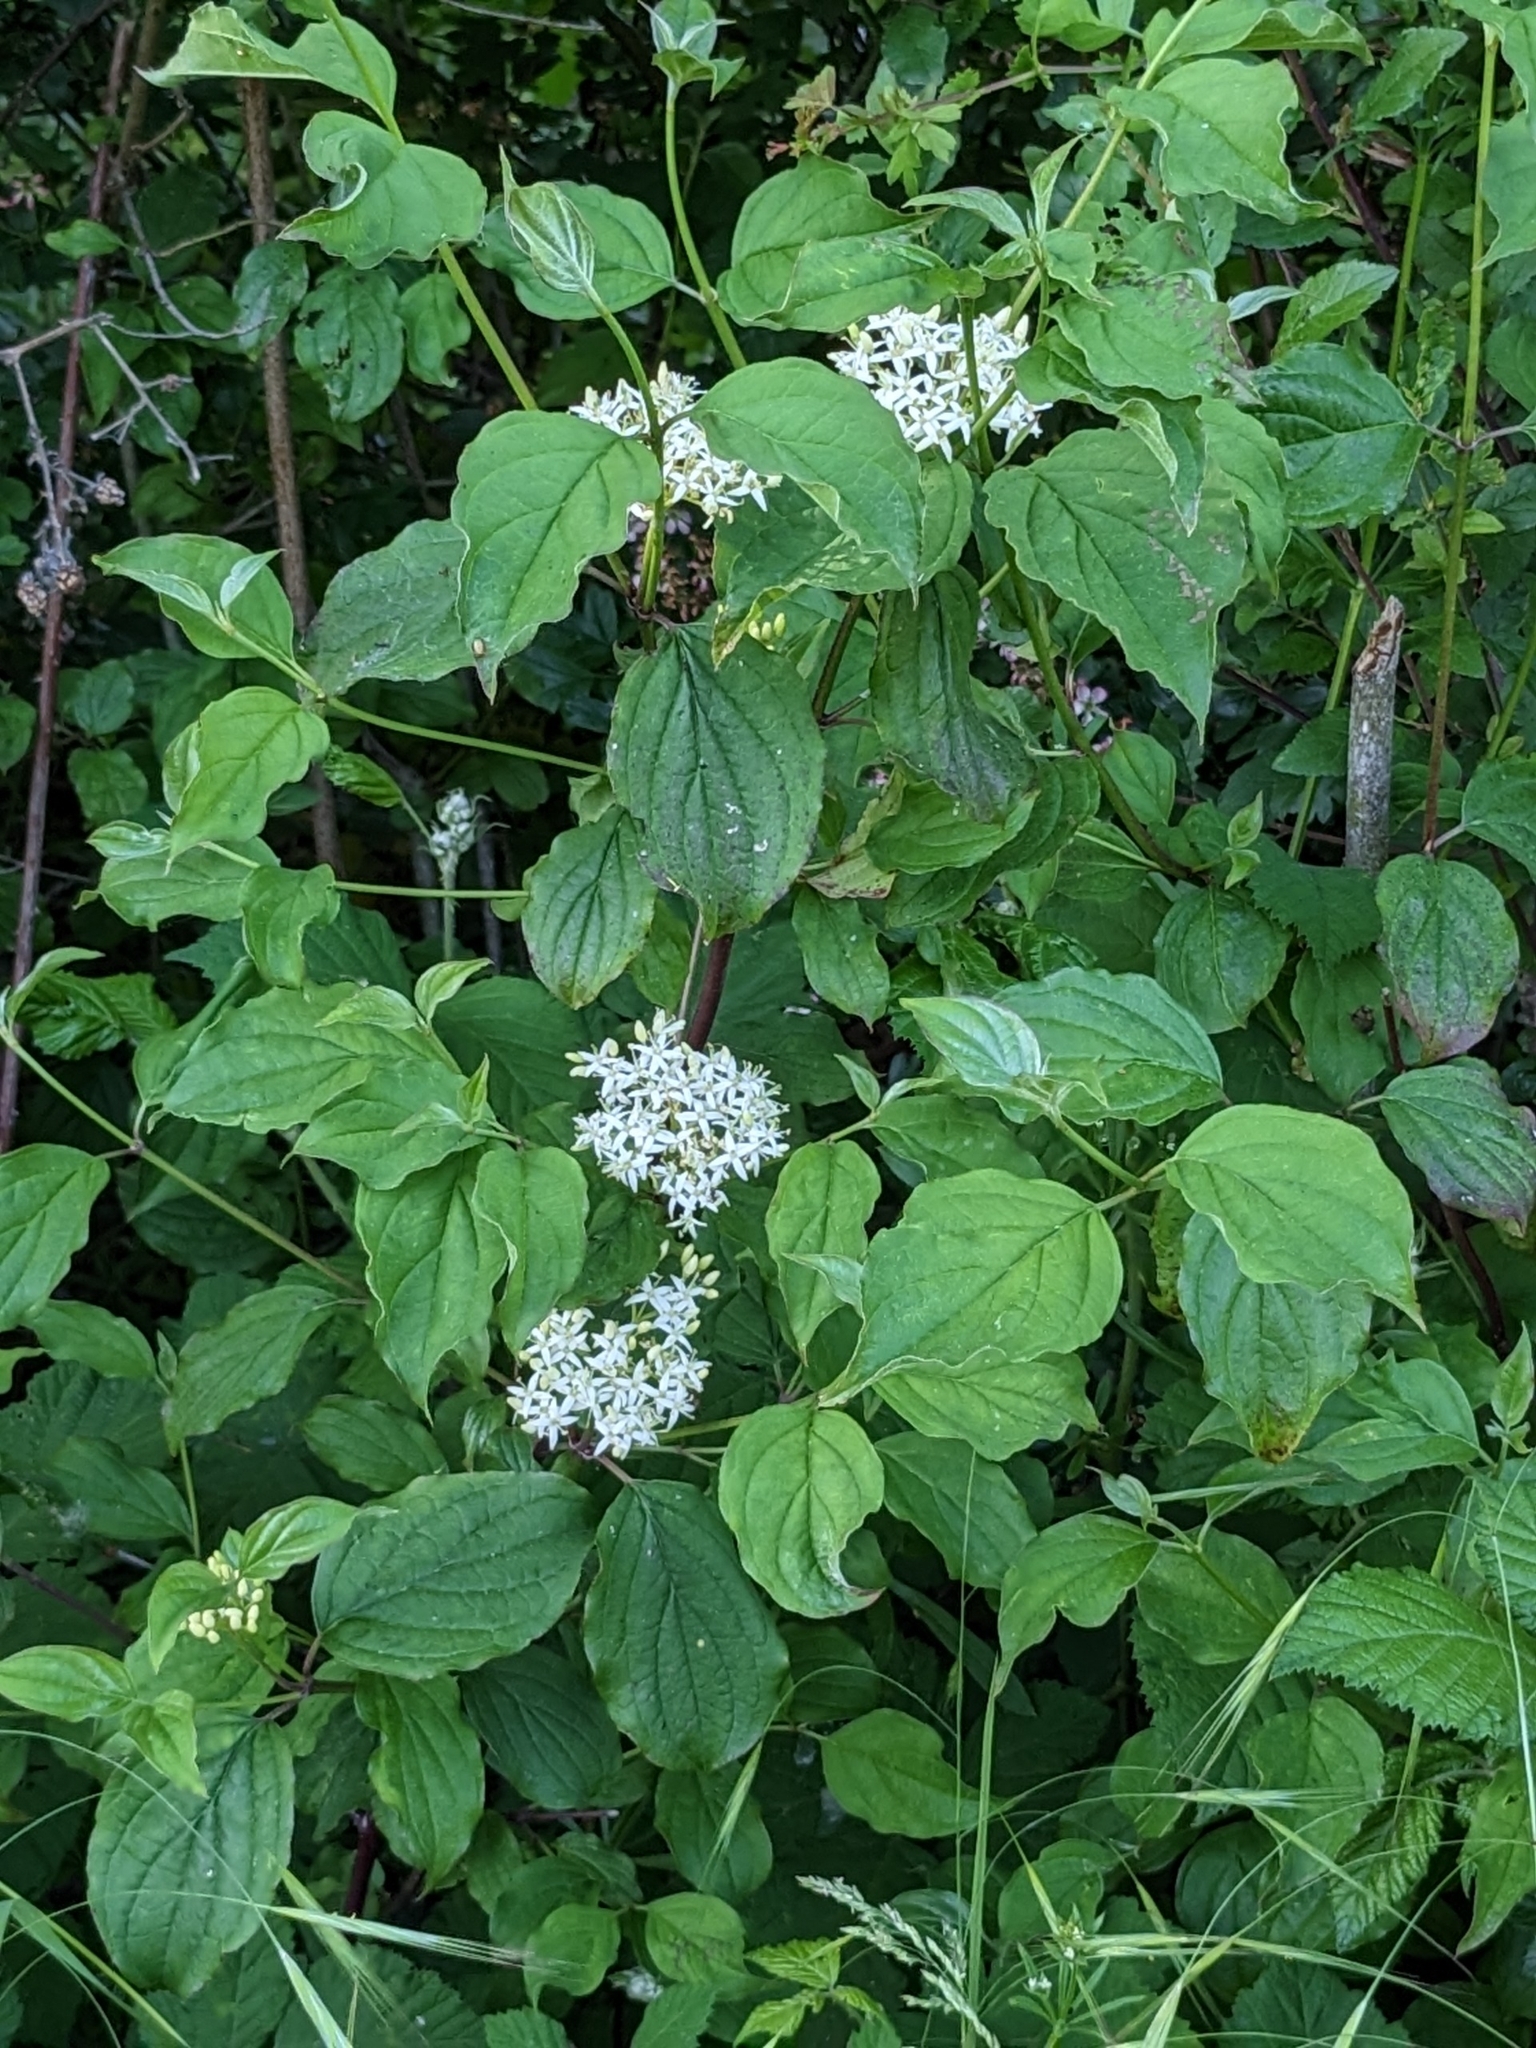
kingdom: Plantae
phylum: Tracheophyta
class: Magnoliopsida
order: Cornales
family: Cornaceae
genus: Cornus
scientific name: Cornus sanguinea
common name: Dogwood
